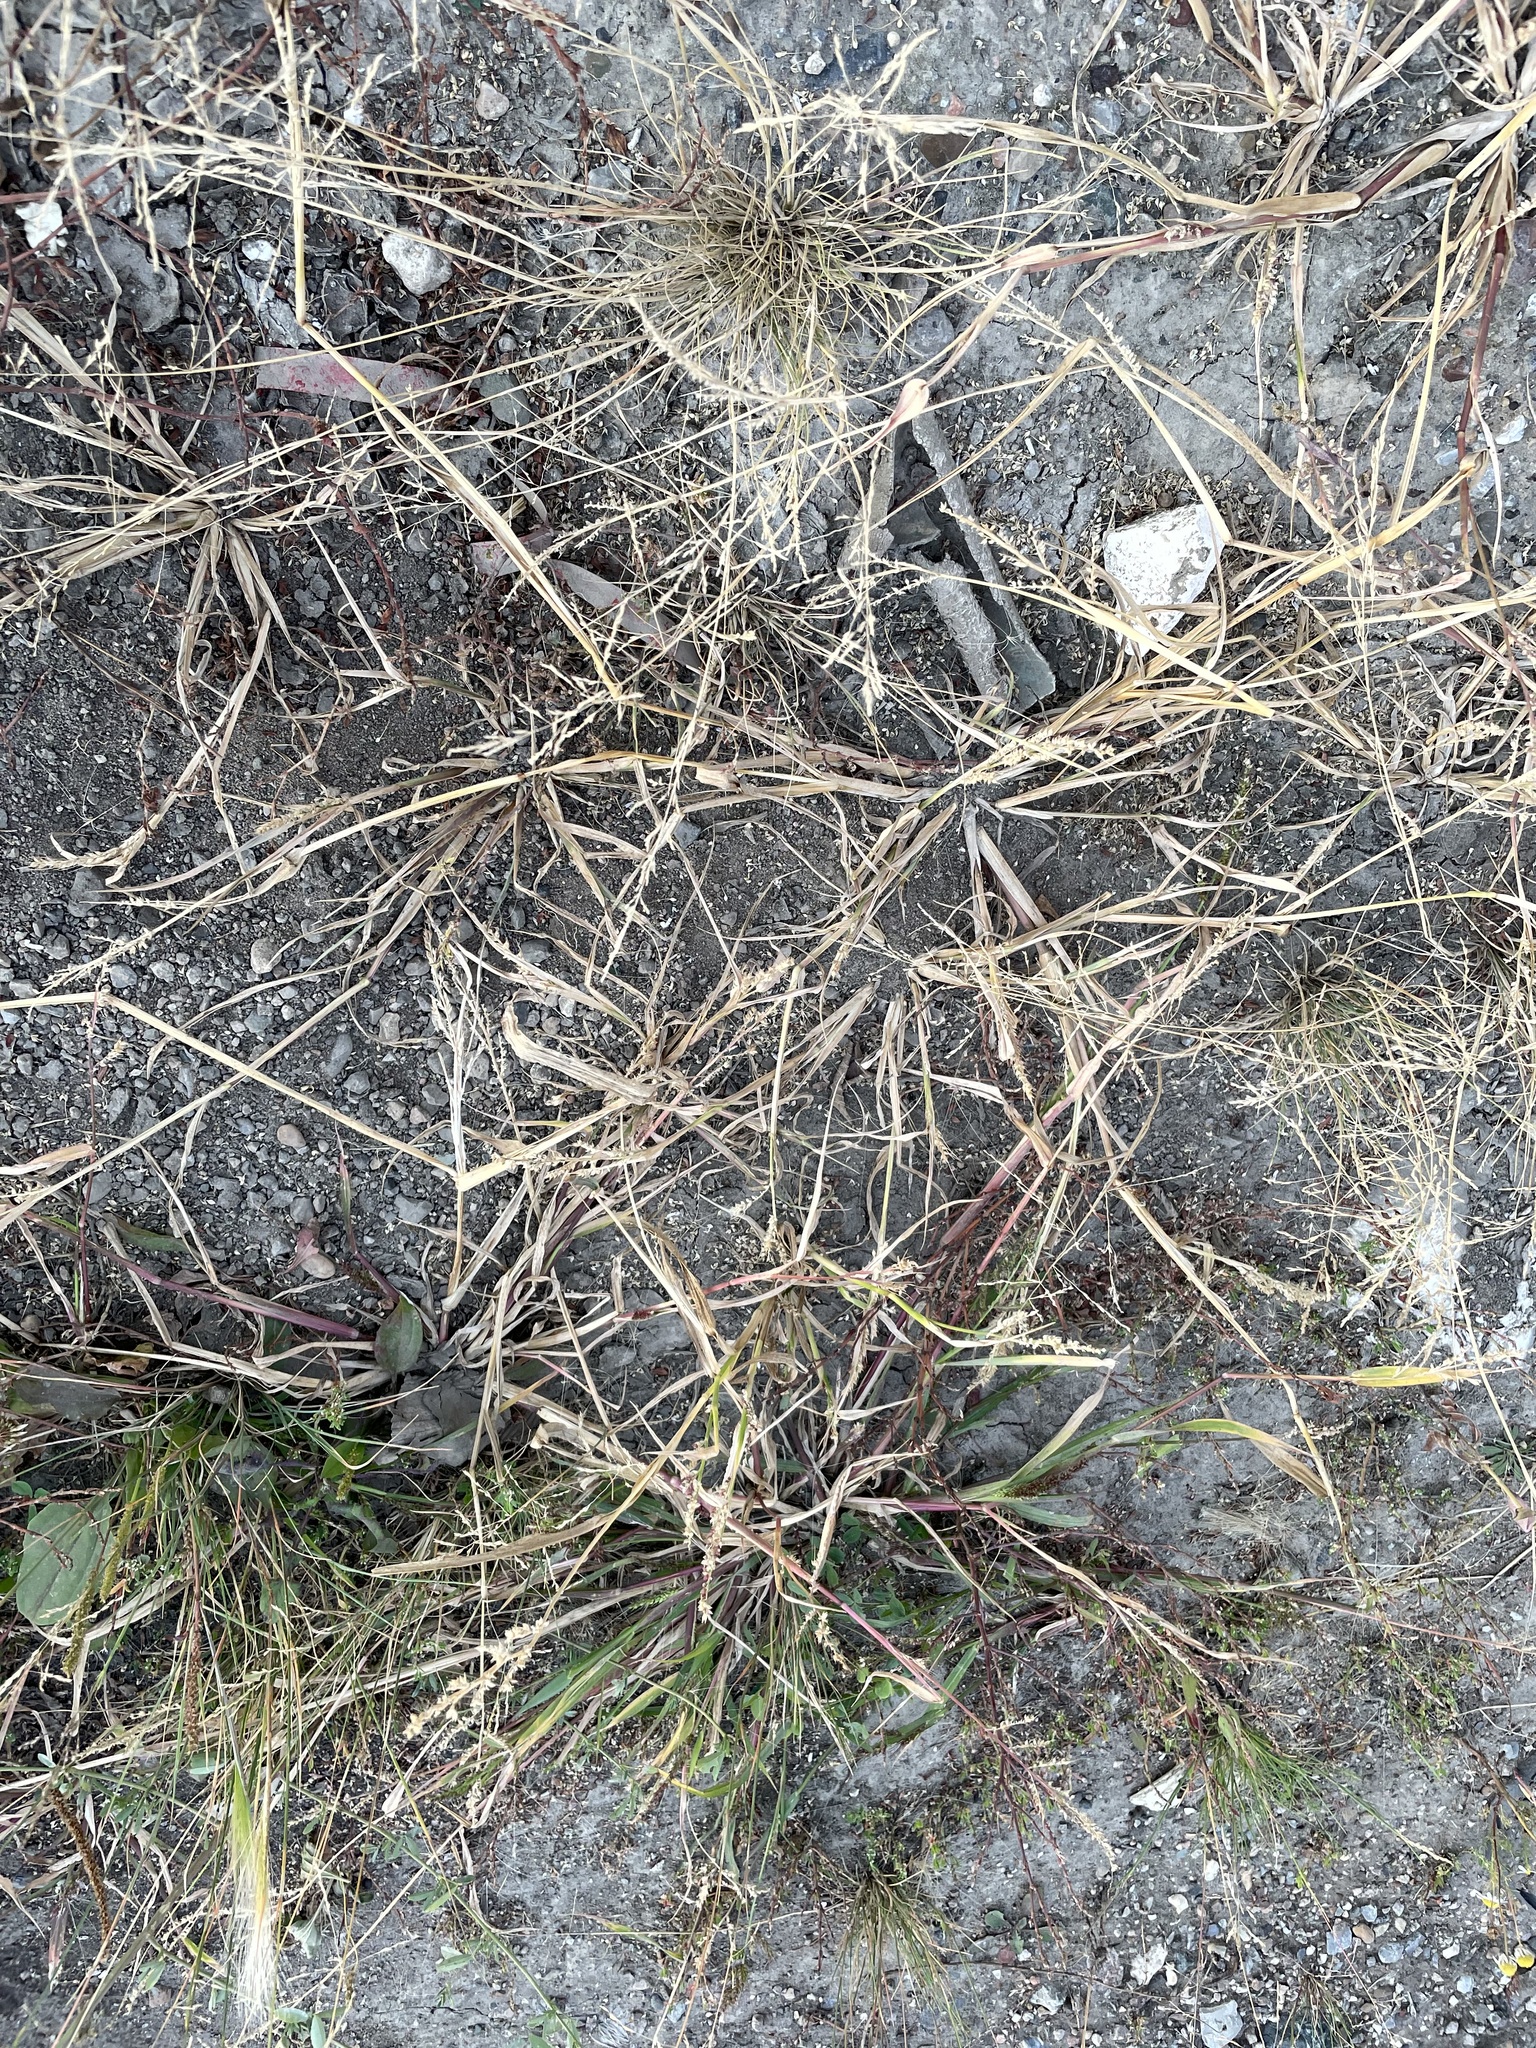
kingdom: Plantae
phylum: Tracheophyta
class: Liliopsida
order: Poales
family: Poaceae
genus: Puccinellia
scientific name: Puccinellia distans
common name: Weeping alkaligrass
